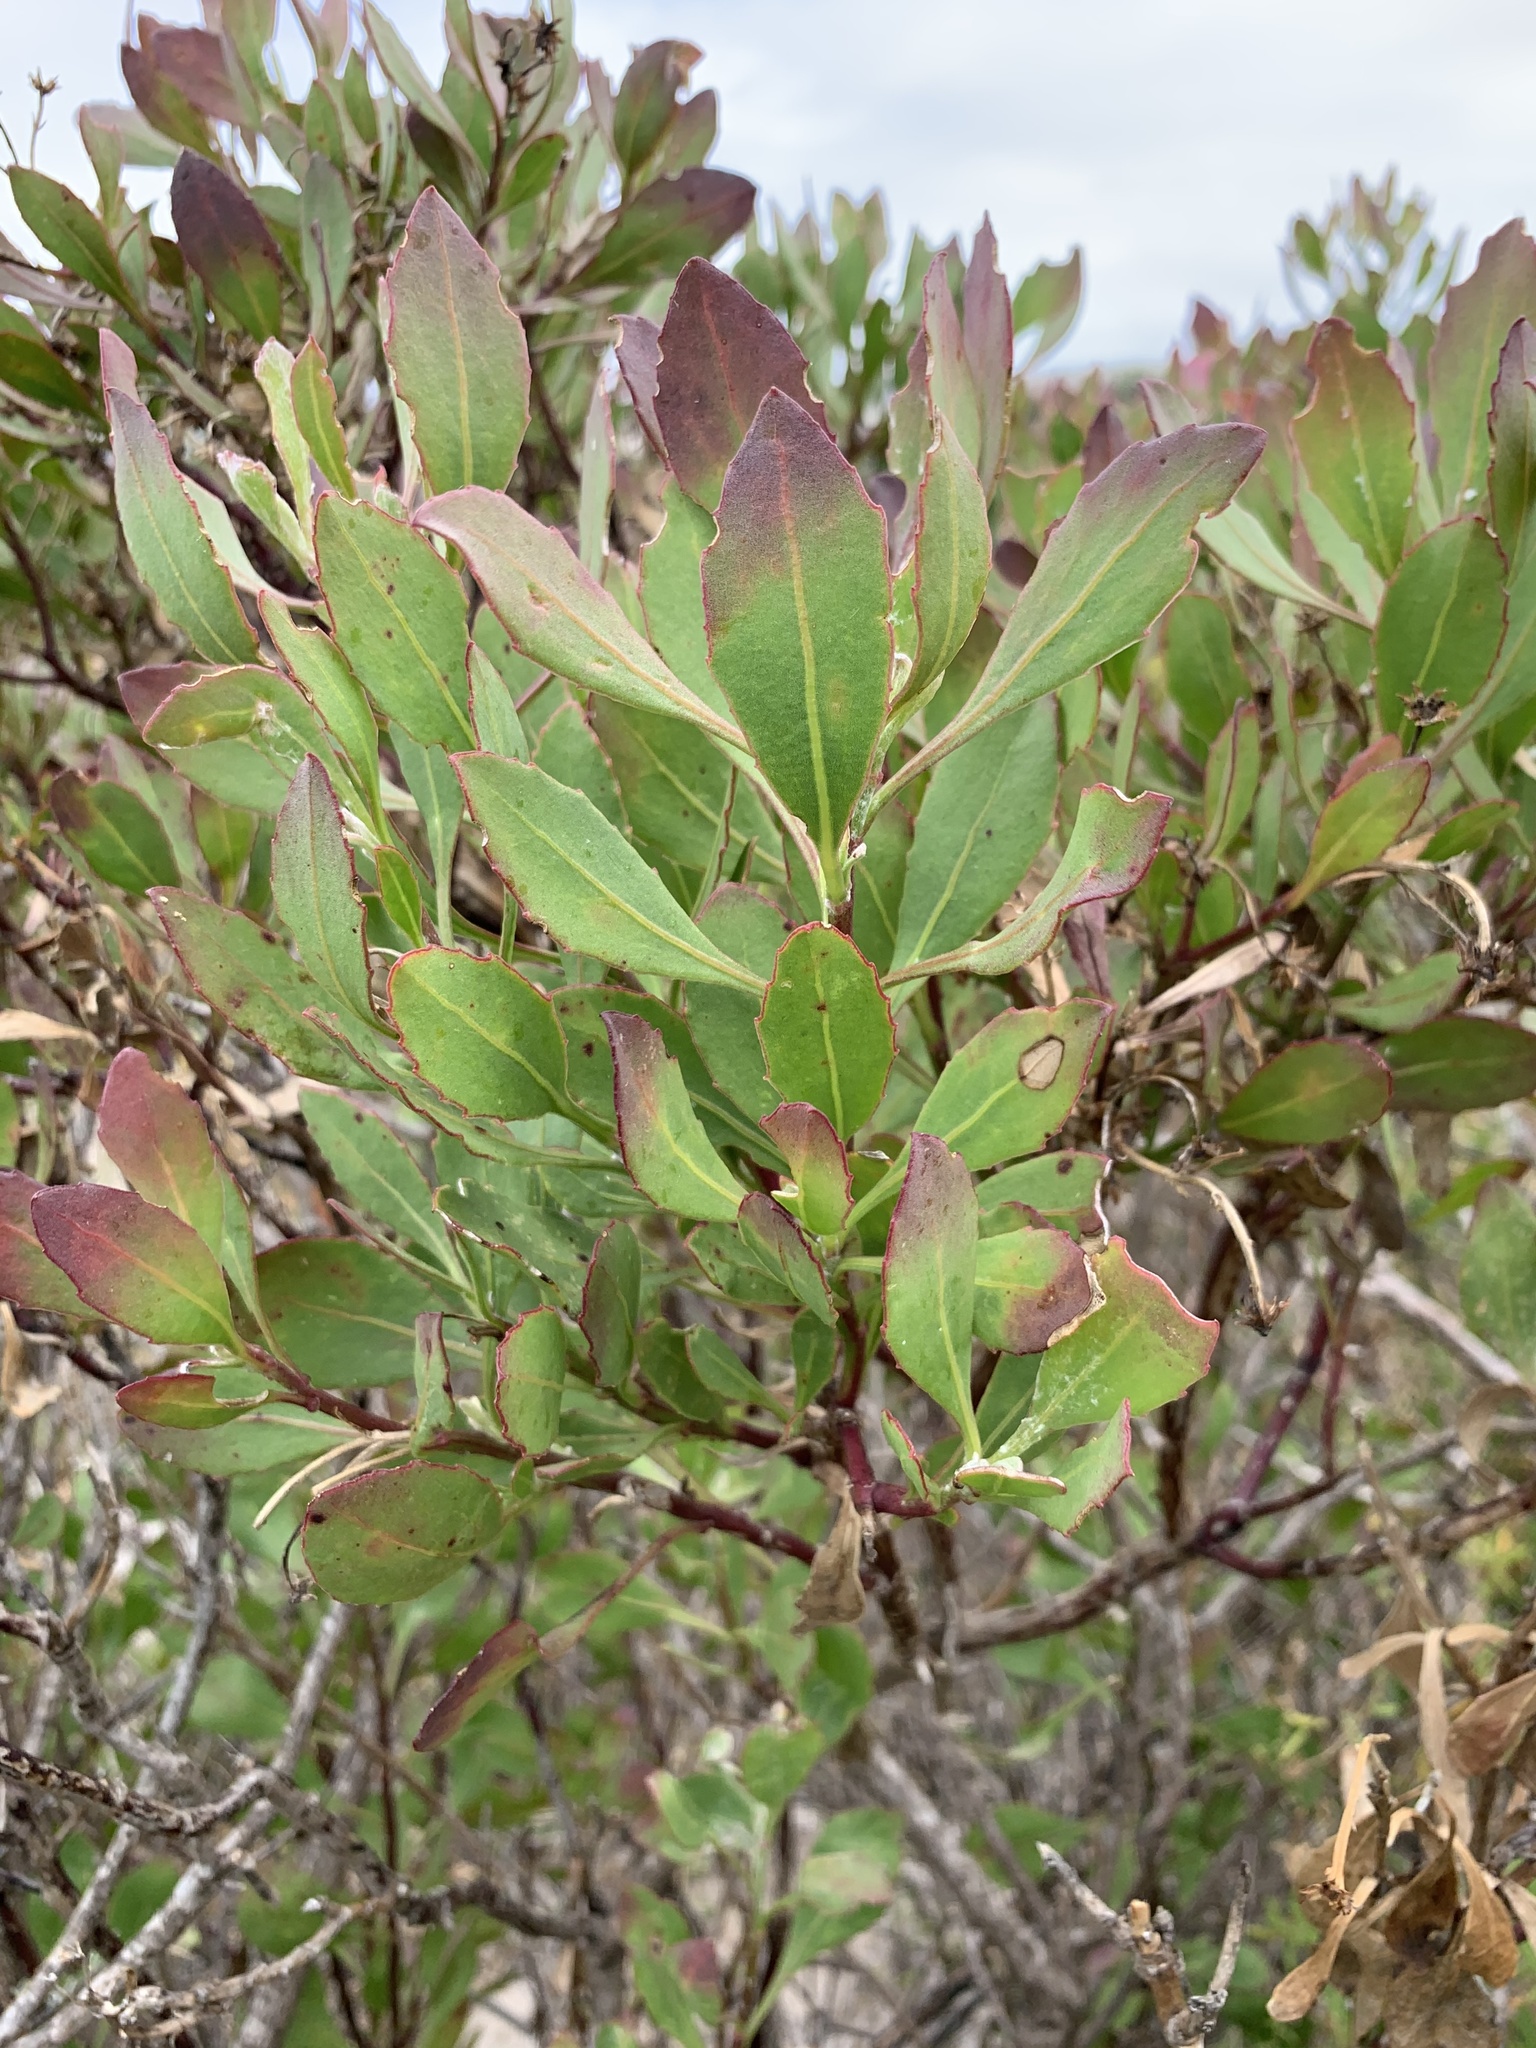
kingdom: Plantae
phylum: Tracheophyta
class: Magnoliopsida
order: Asterales
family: Asteraceae
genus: Osteospermum
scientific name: Osteospermum moniliferum
